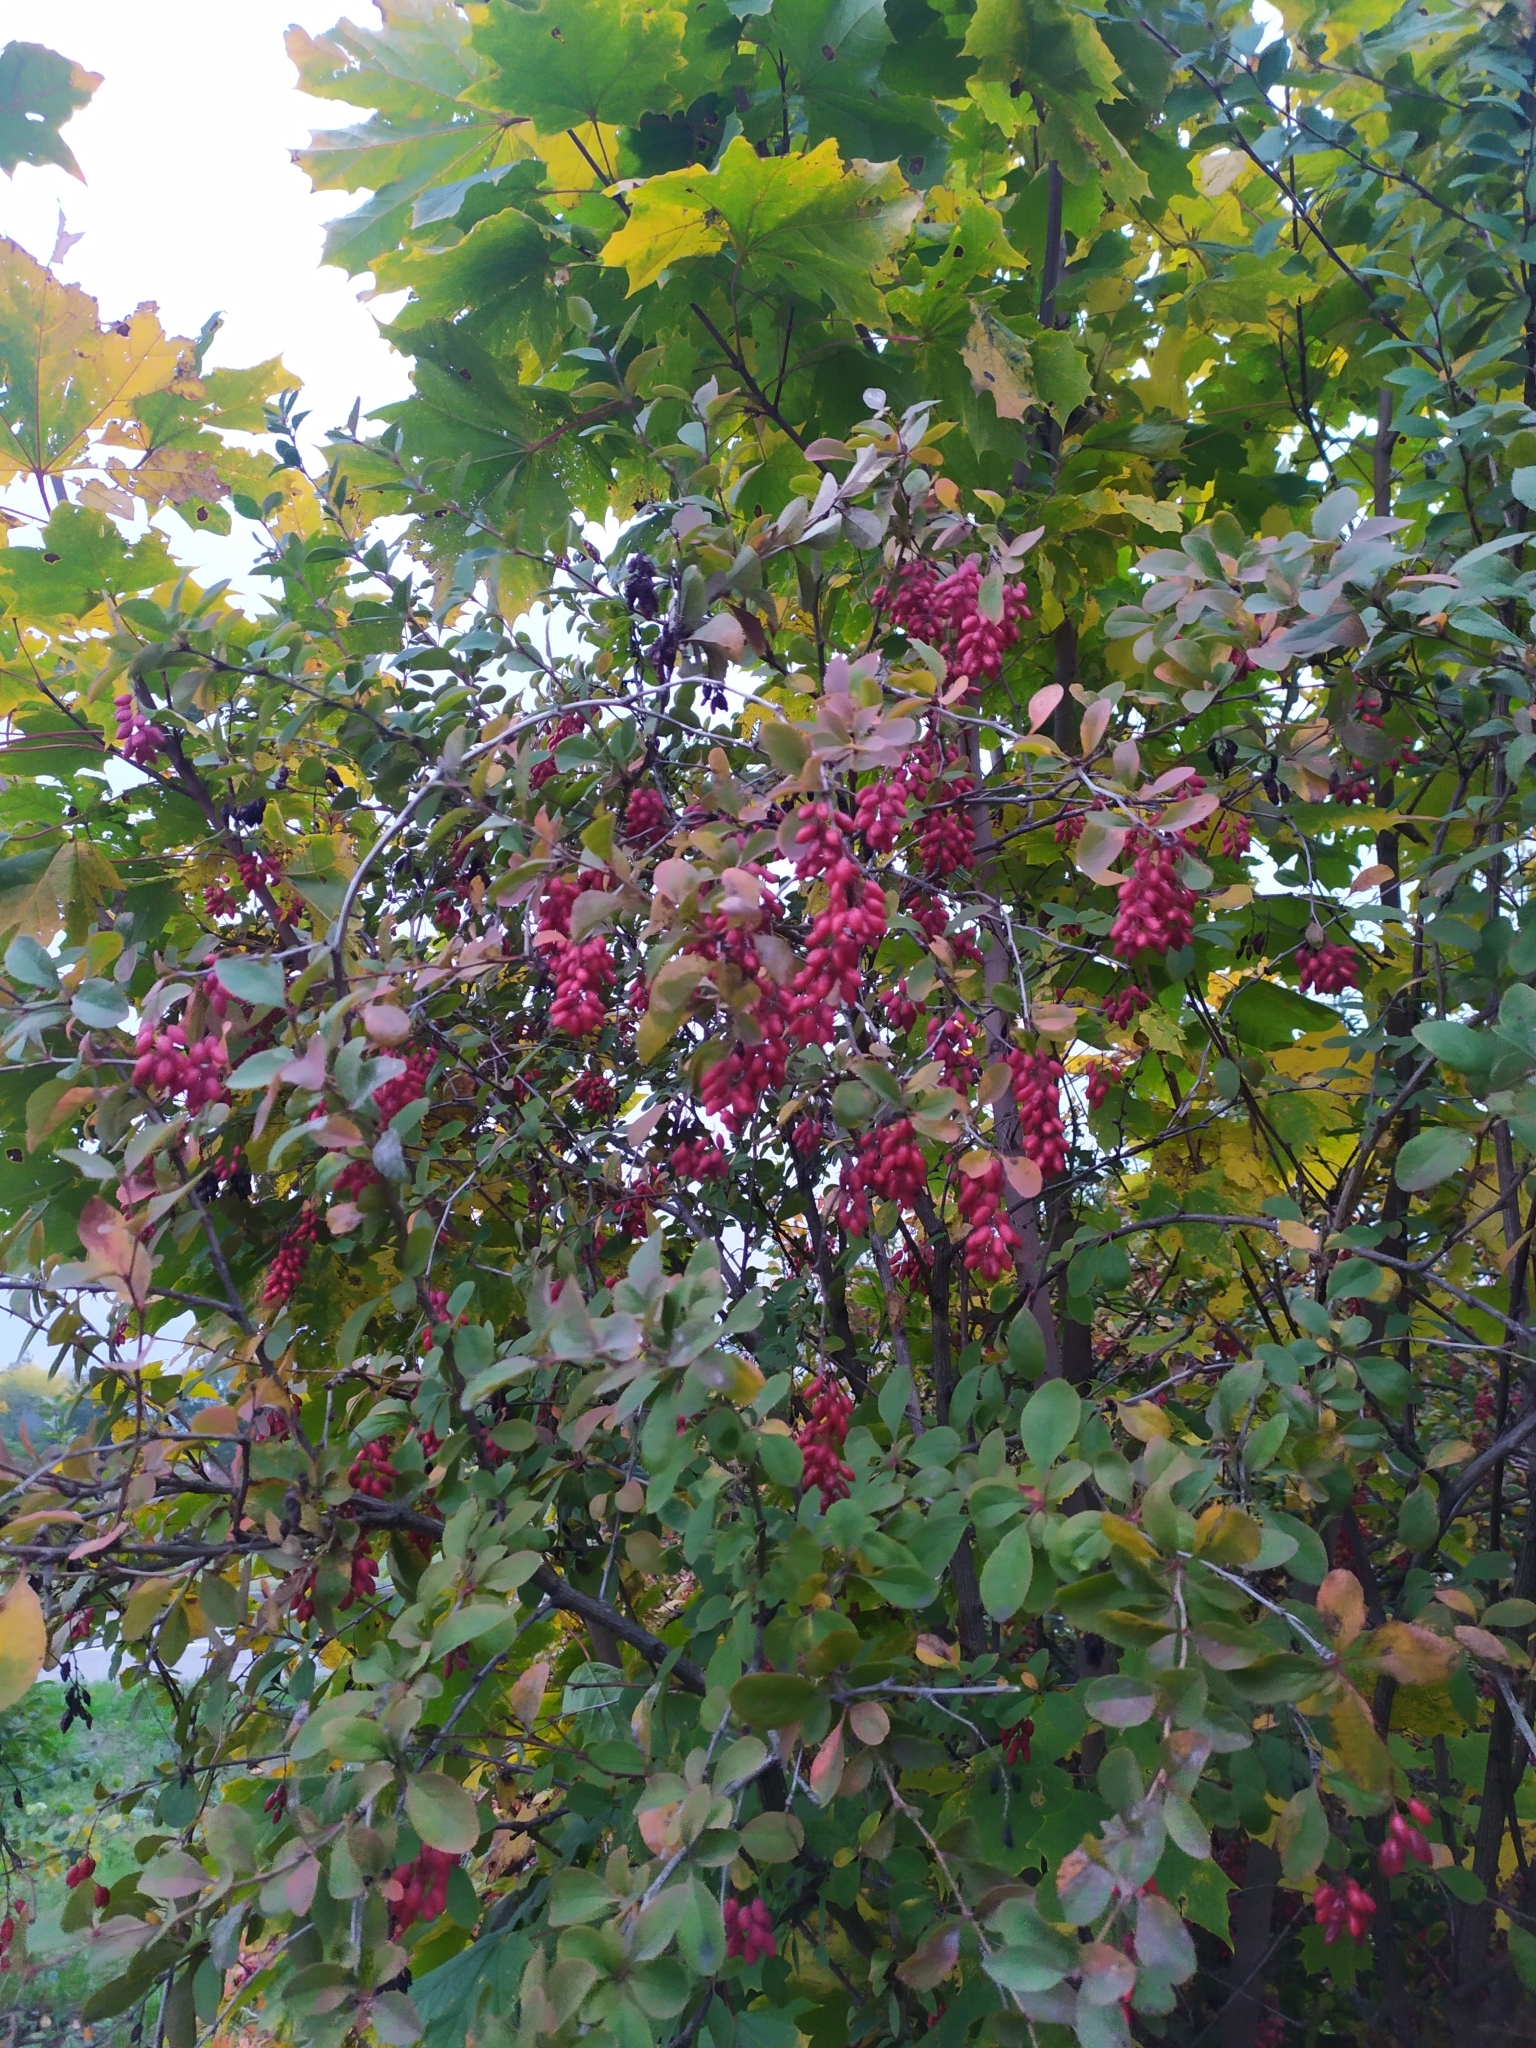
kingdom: Plantae
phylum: Tracheophyta
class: Magnoliopsida
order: Ranunculales
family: Berberidaceae
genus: Berberis
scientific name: Berberis vulgaris
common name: Barberry
